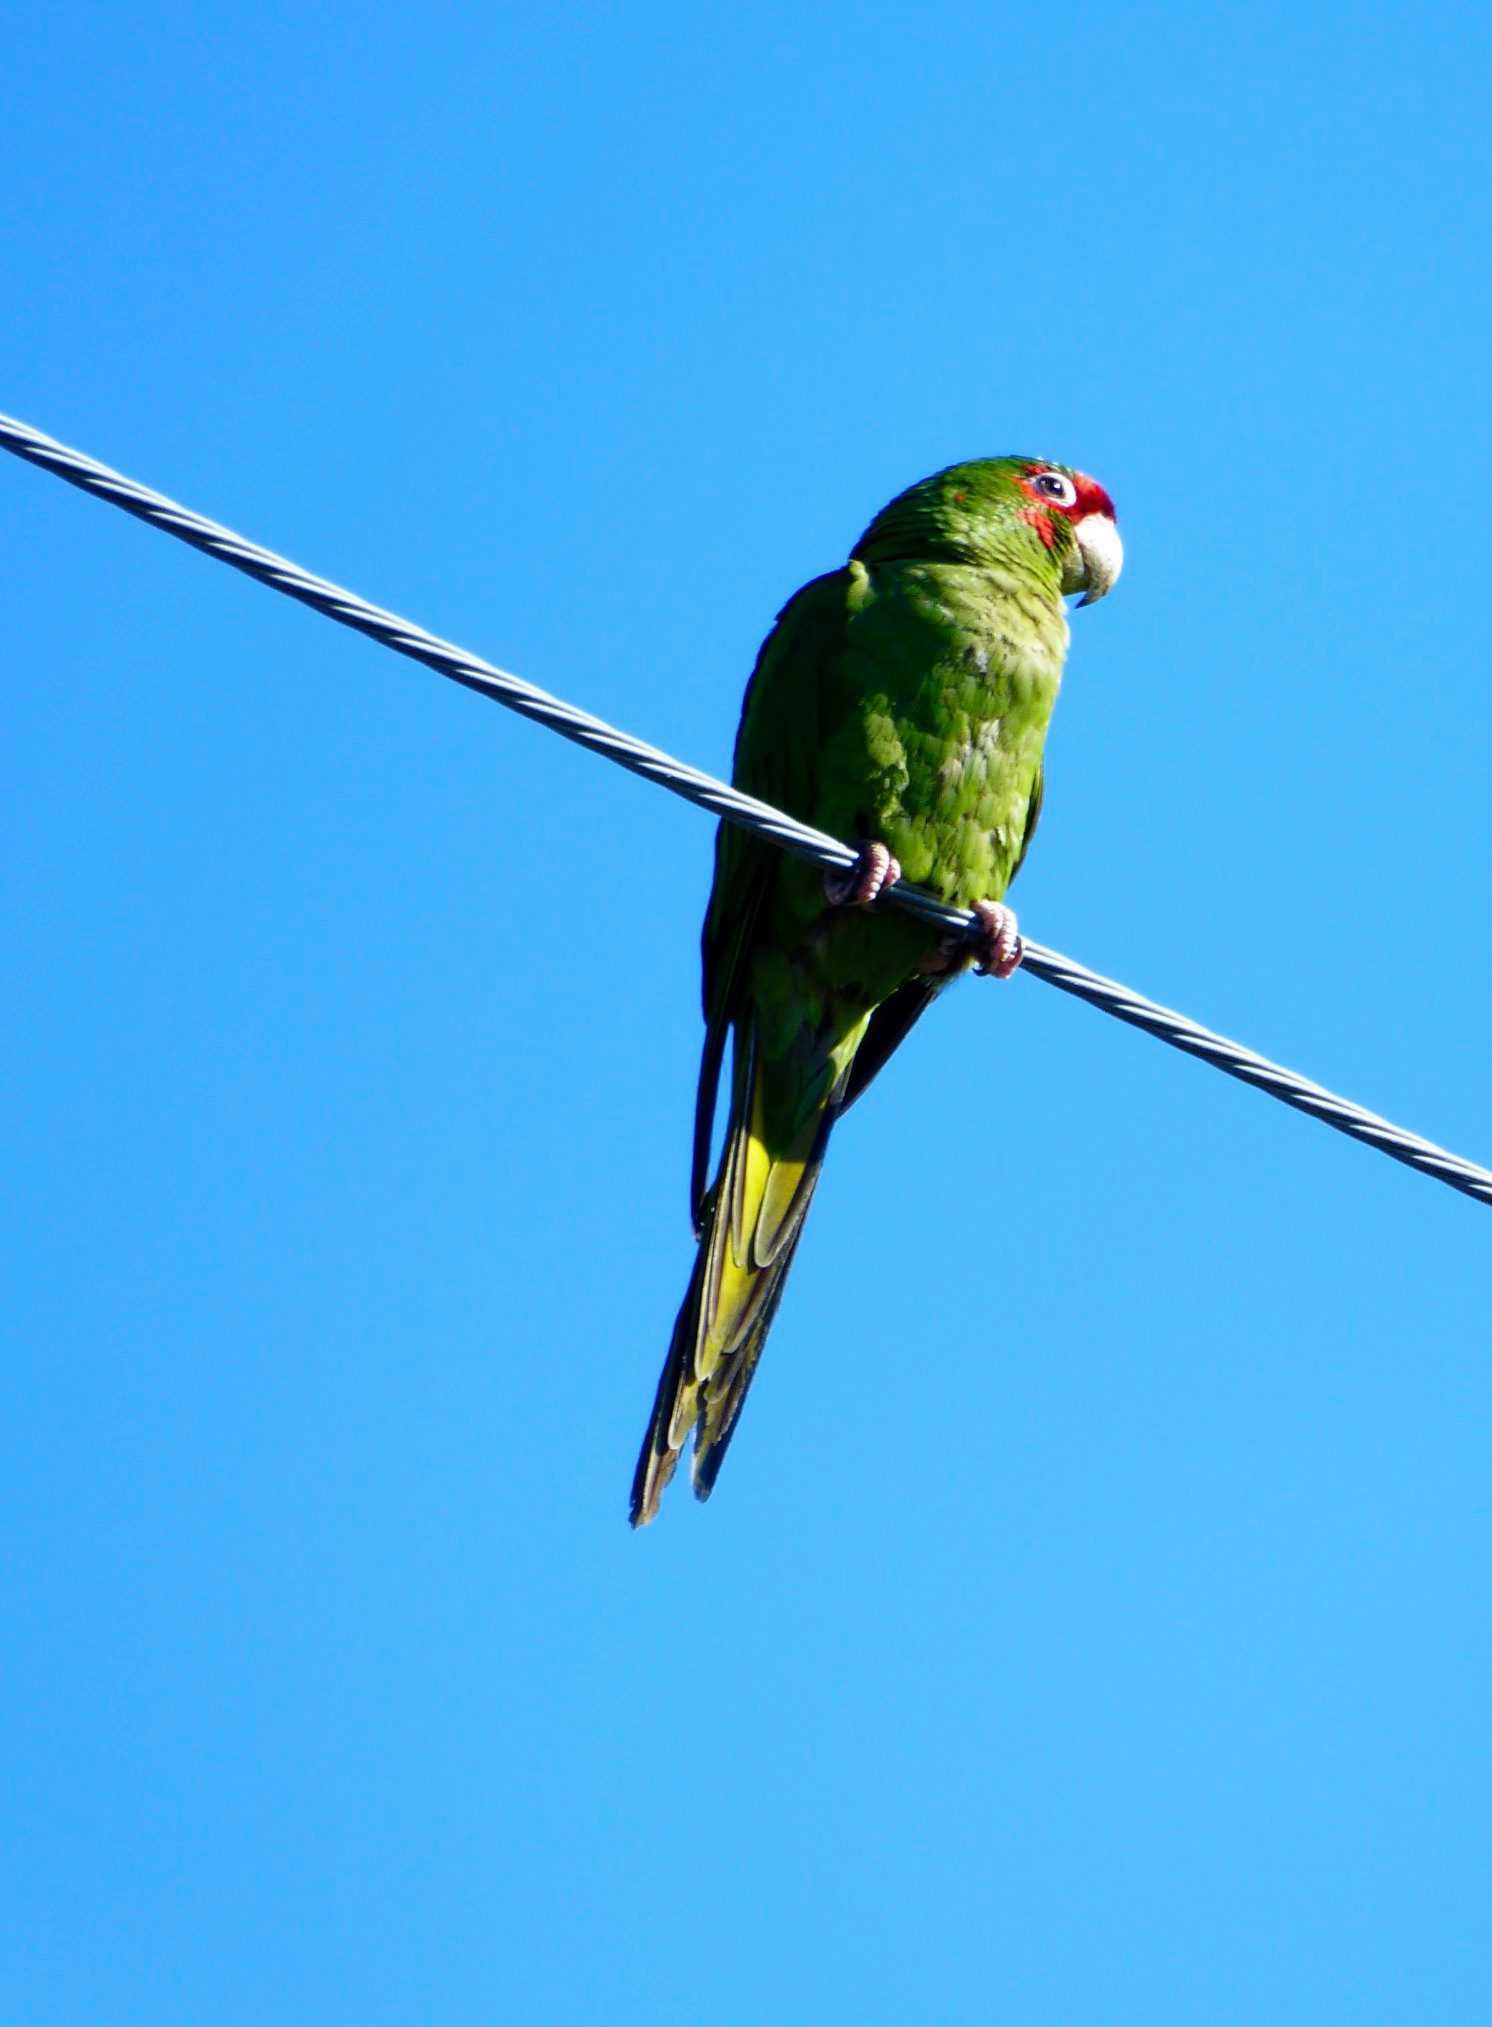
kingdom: Animalia
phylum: Chordata
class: Aves
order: Psittaciformes
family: Psittacidae
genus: Aratinga
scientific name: Aratinga mitrata
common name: Mitred parakeet
